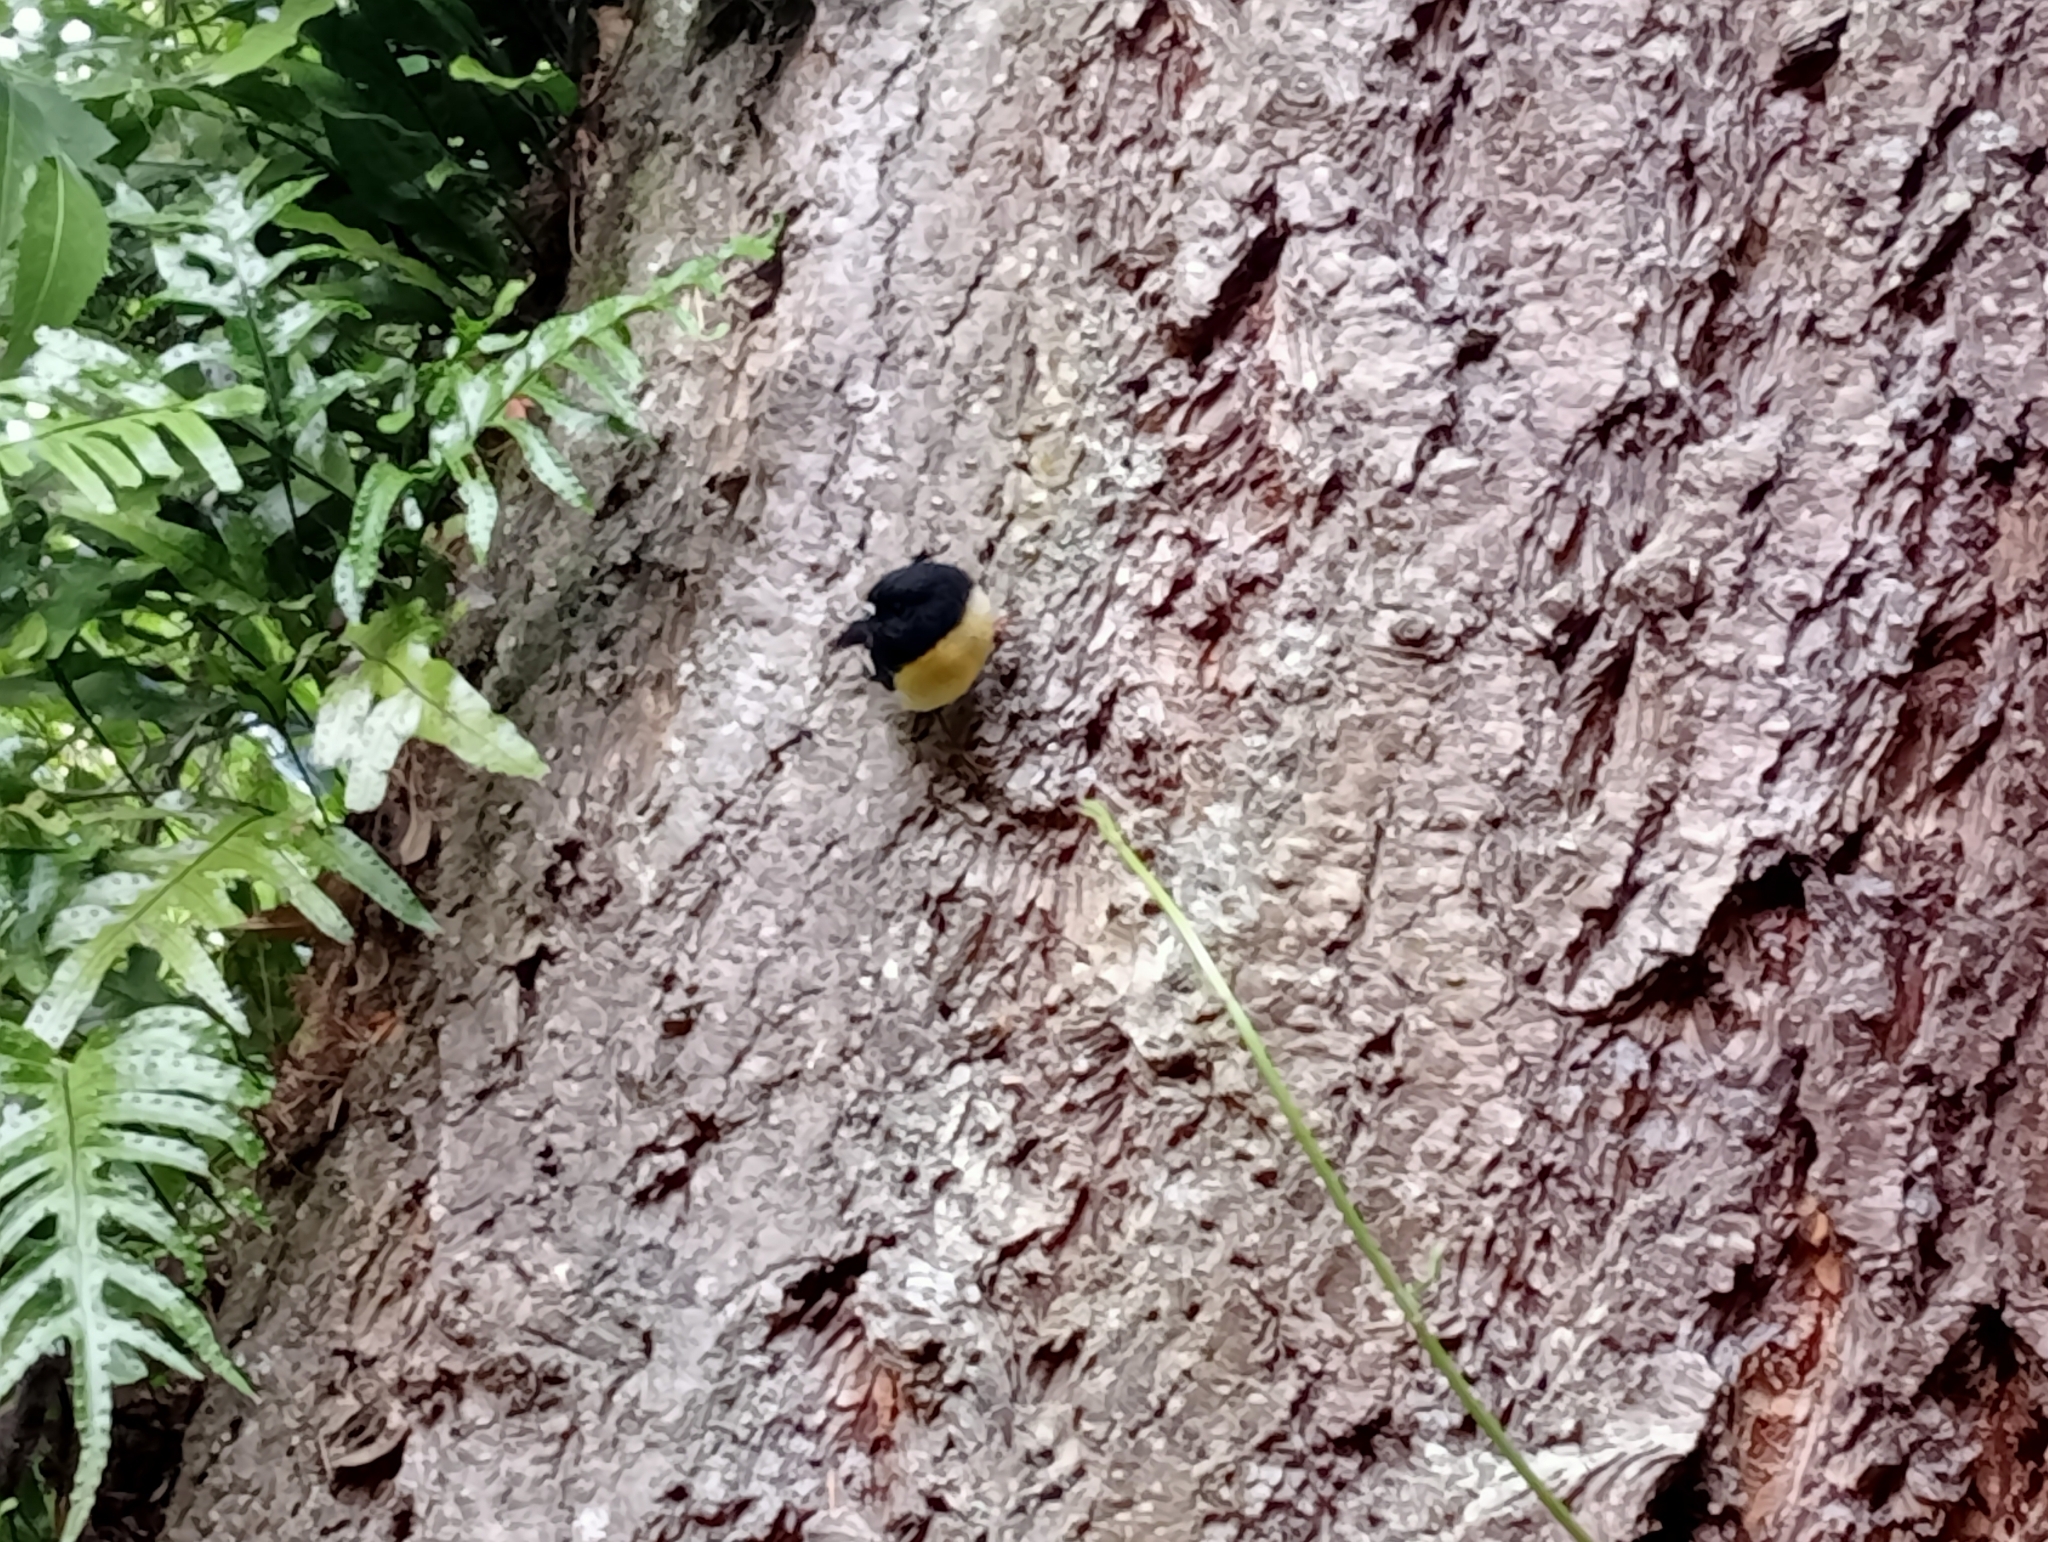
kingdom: Animalia
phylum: Chordata
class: Aves
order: Passeriformes
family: Petroicidae
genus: Petroica
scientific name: Petroica macrocephala
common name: Tomtit
